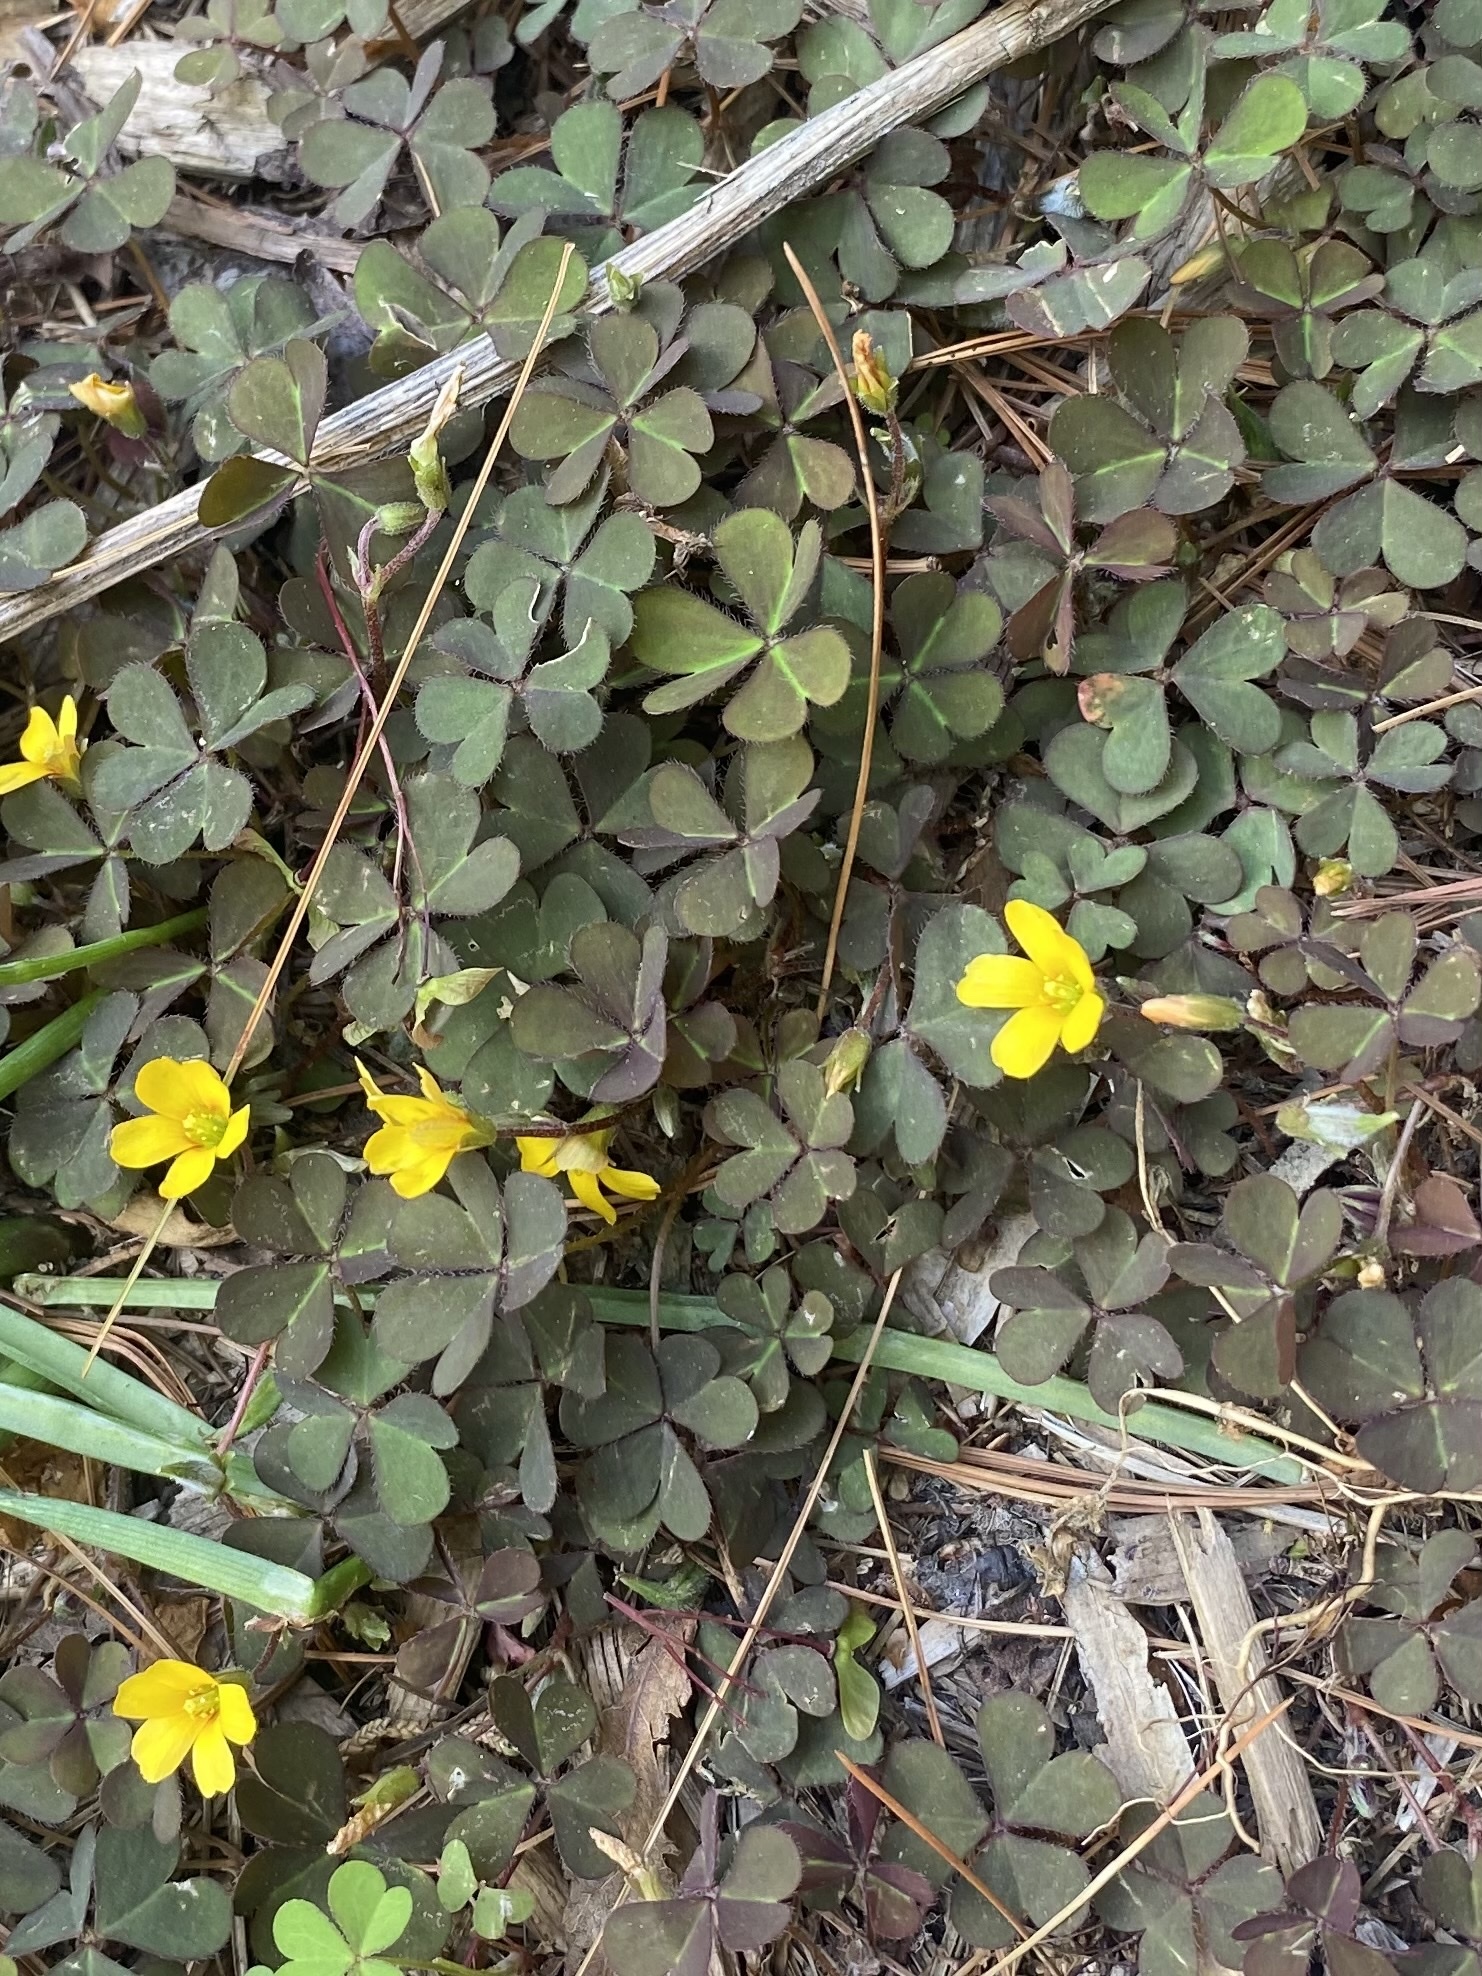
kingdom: Plantae
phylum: Tracheophyta
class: Magnoliopsida
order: Oxalidales
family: Oxalidaceae
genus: Oxalis
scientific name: Oxalis corniculata
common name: Procumbent yellow-sorrel
